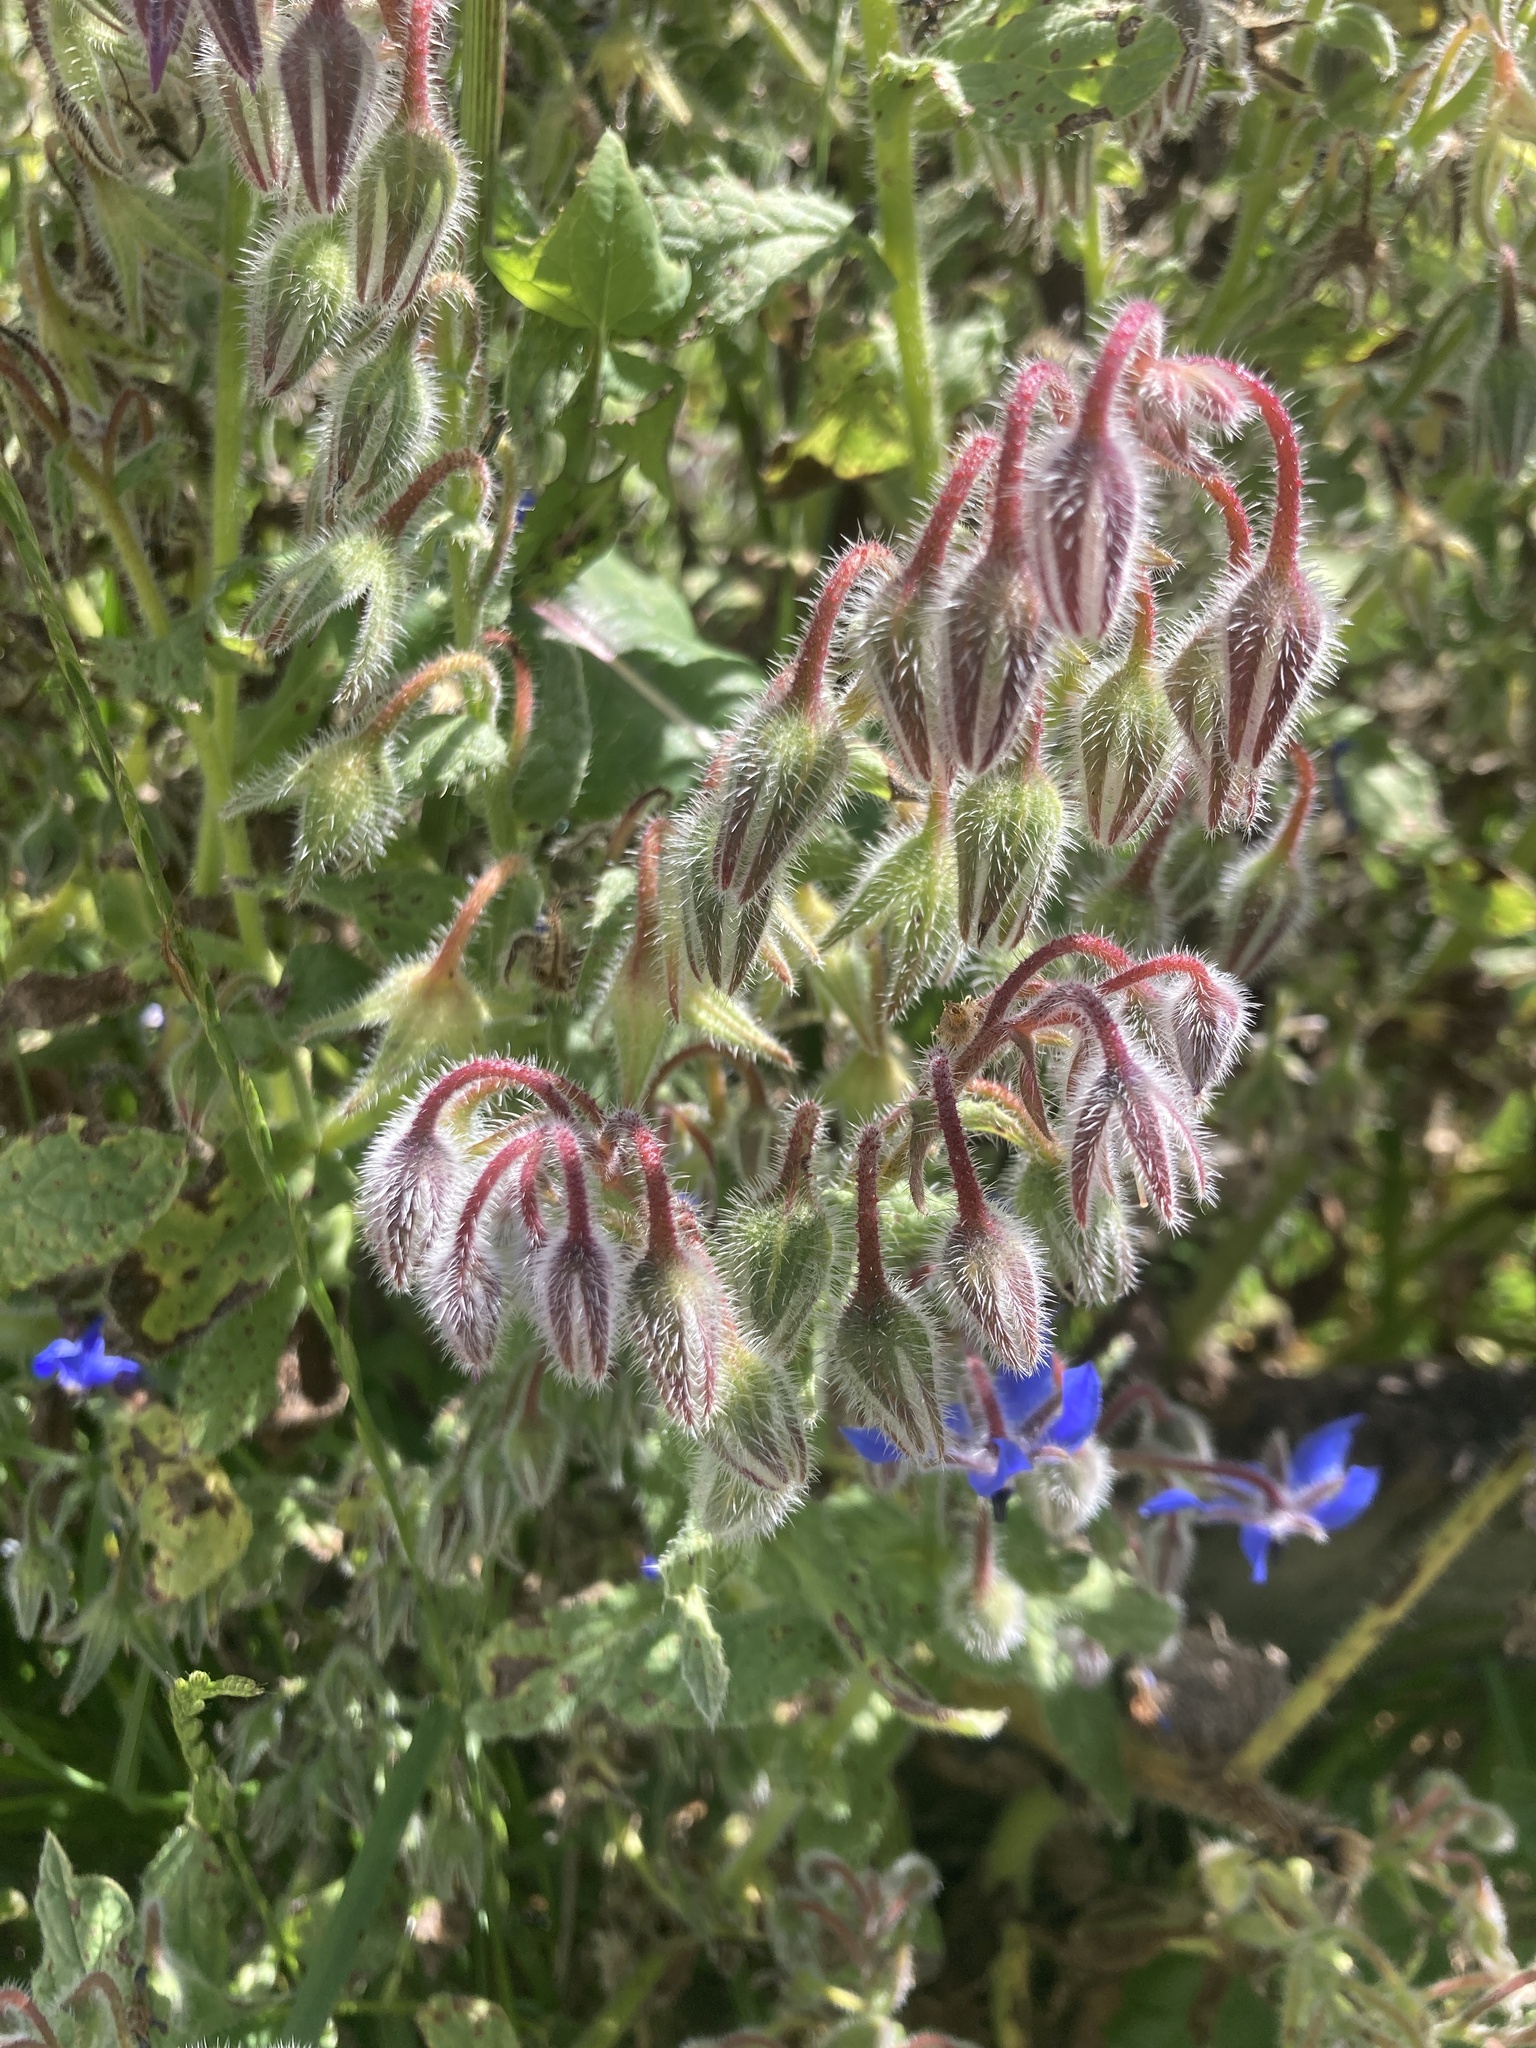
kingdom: Plantae
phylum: Tracheophyta
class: Magnoliopsida
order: Boraginales
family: Boraginaceae
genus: Borago
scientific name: Borago officinalis
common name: Borage
